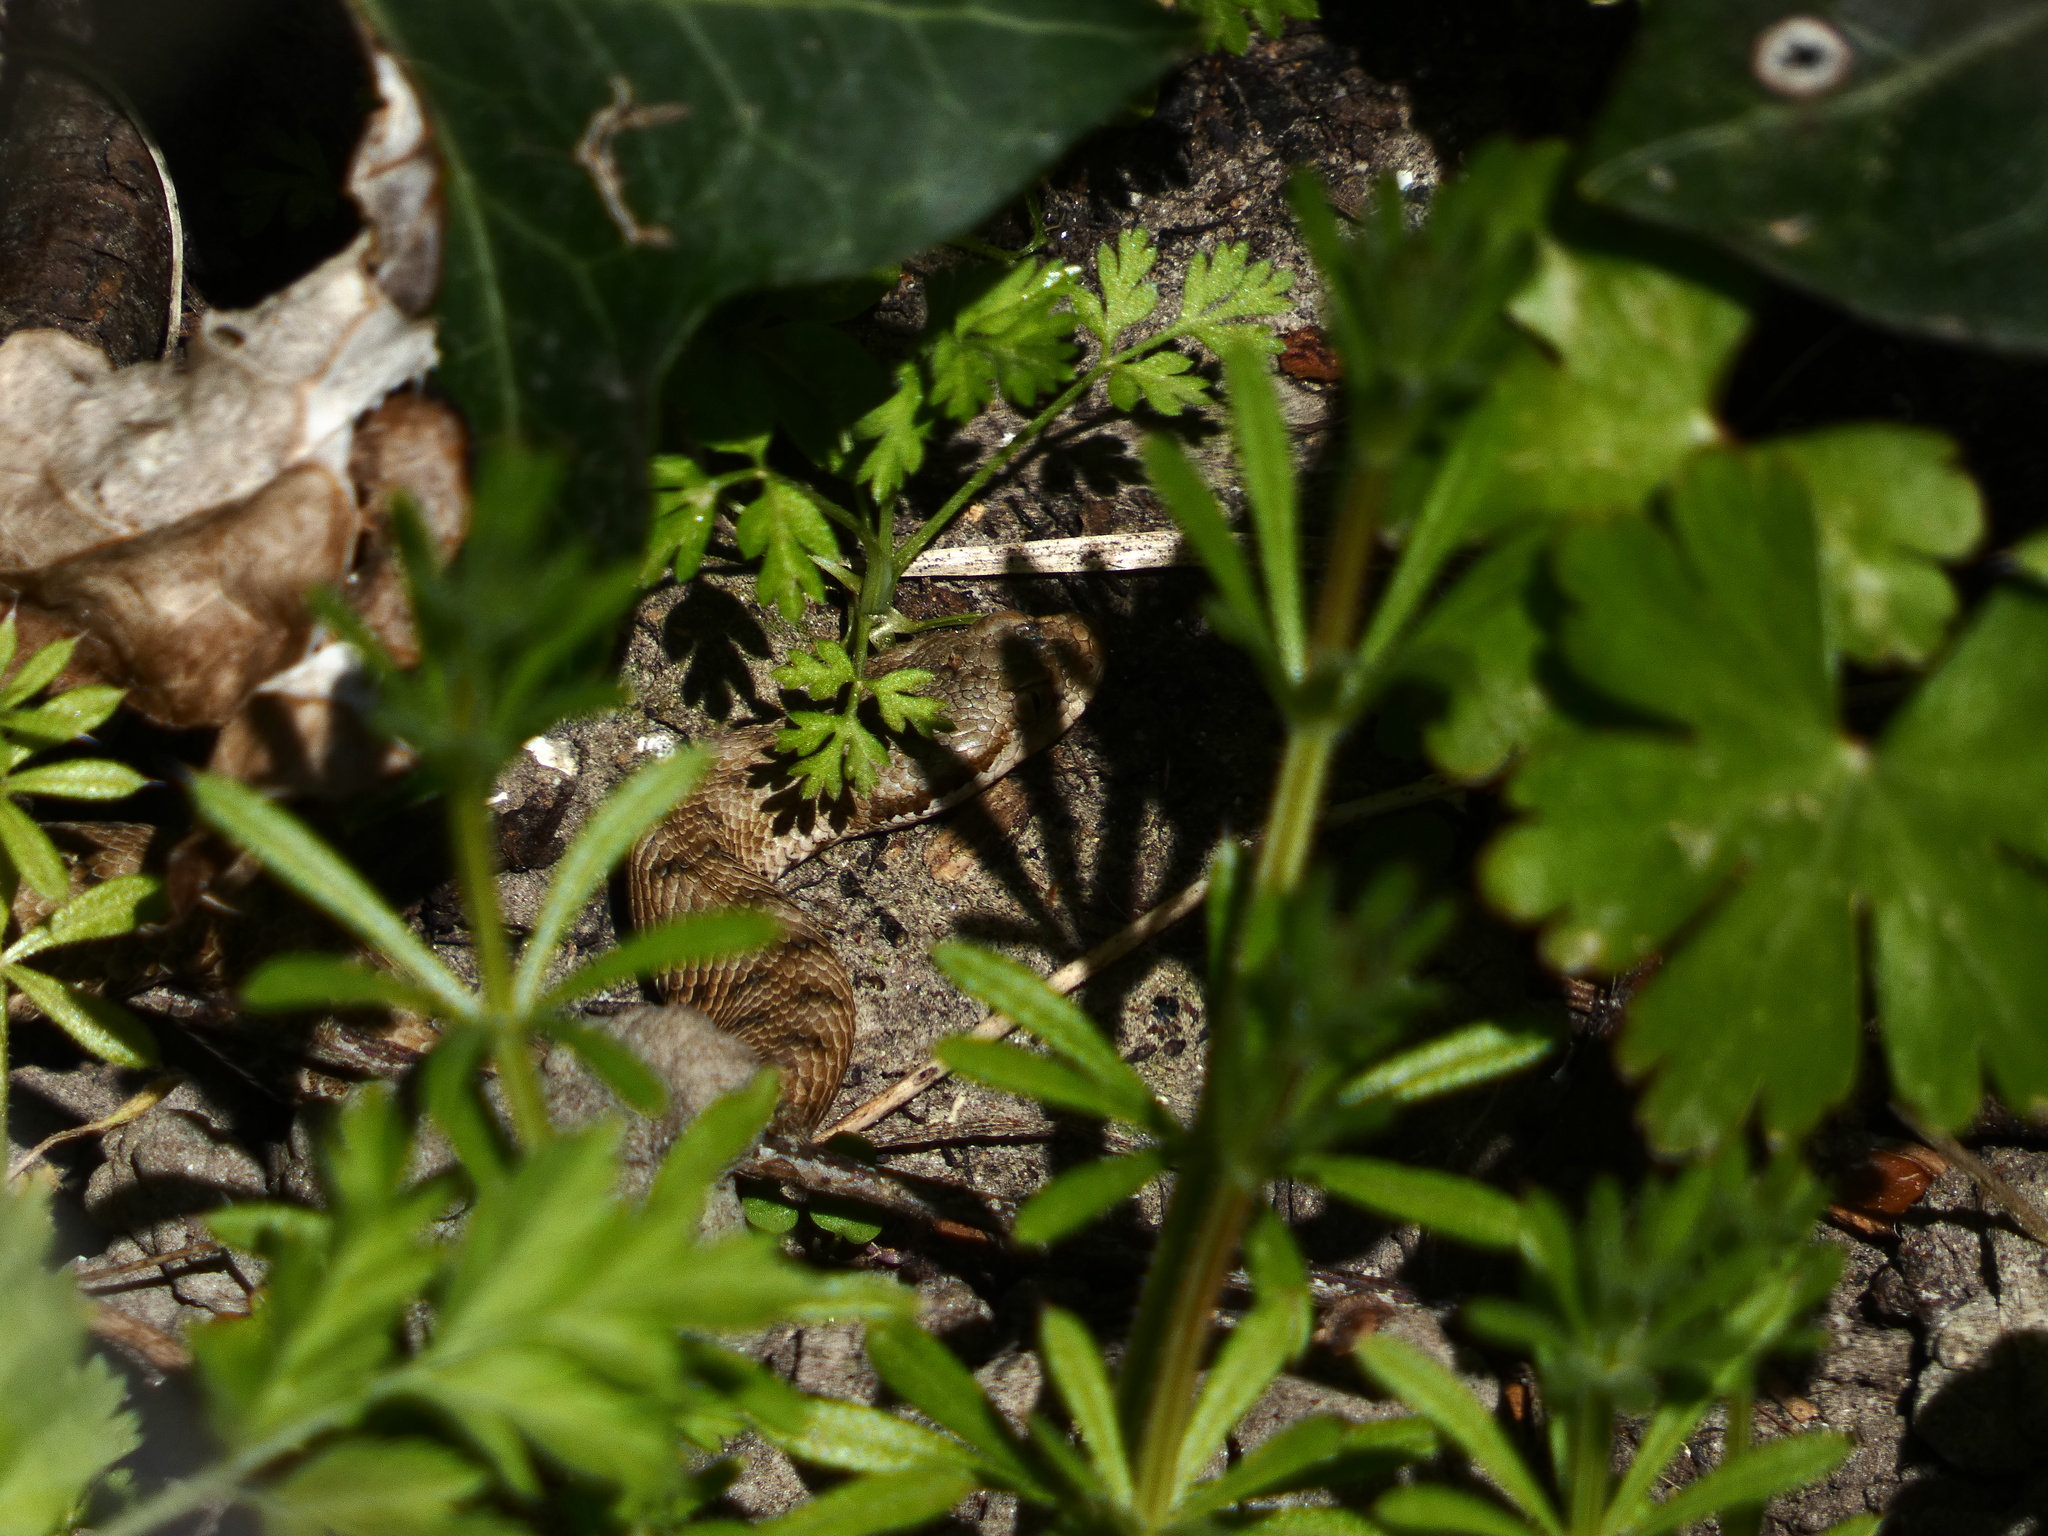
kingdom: Animalia
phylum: Chordata
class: Squamata
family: Viperidae
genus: Vipera
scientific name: Vipera aspis
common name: Asp viper
